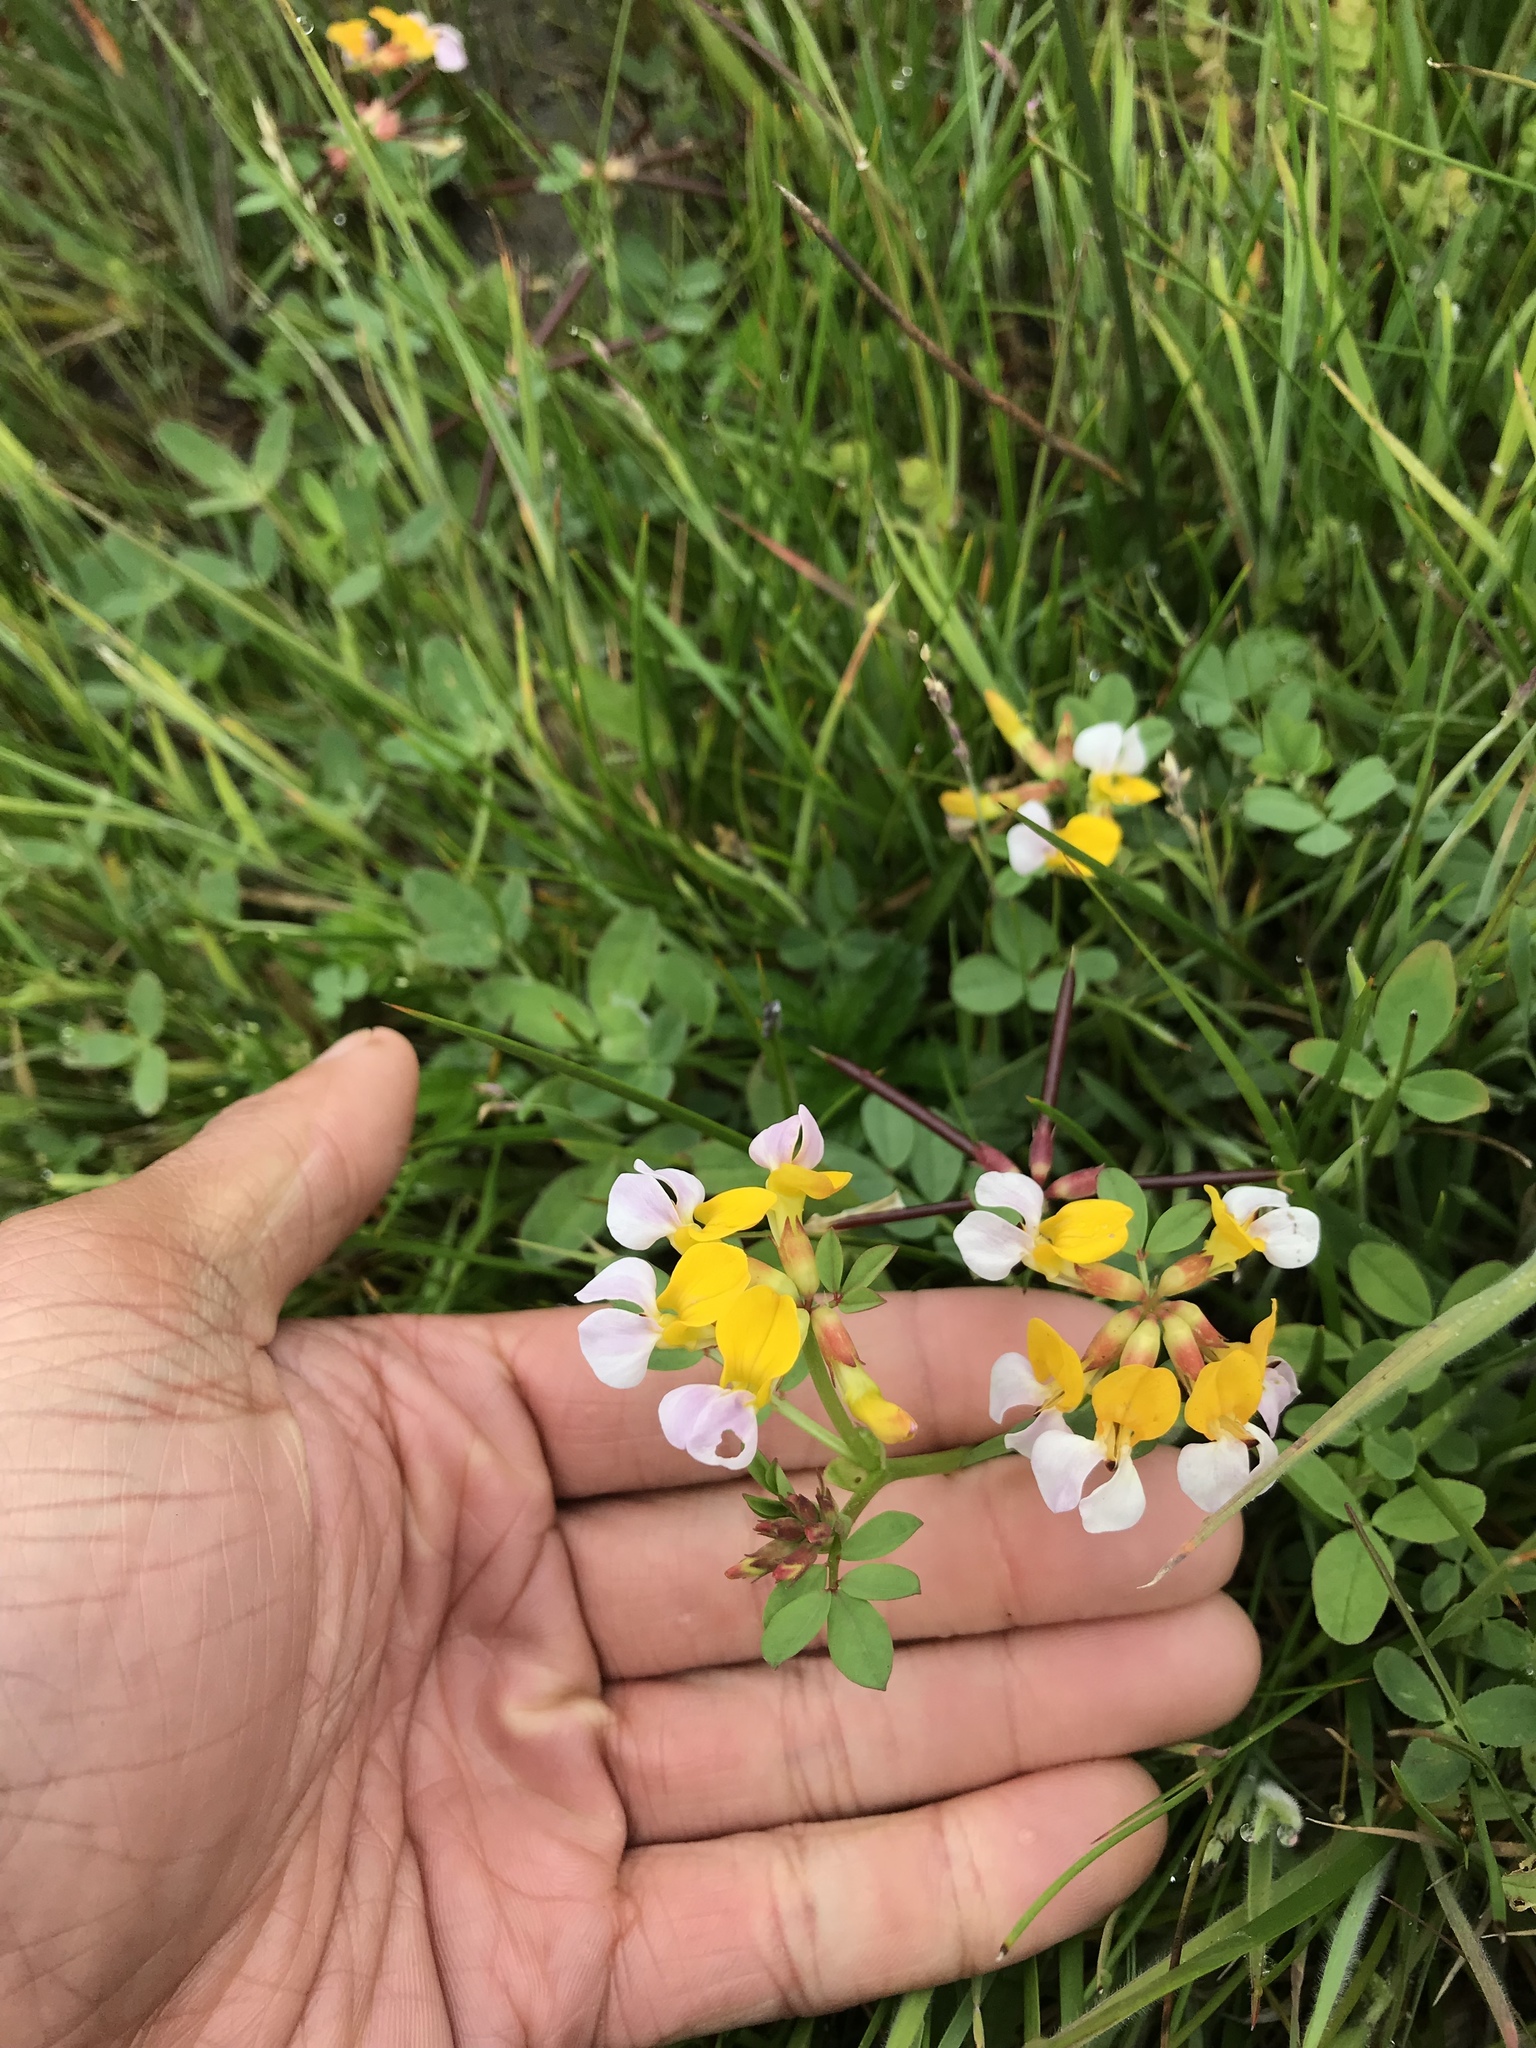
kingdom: Plantae
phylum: Tracheophyta
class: Magnoliopsida
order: Fabales
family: Fabaceae
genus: Hosackia
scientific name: Hosackia gracilis
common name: Seaside bird's-foot lotus
